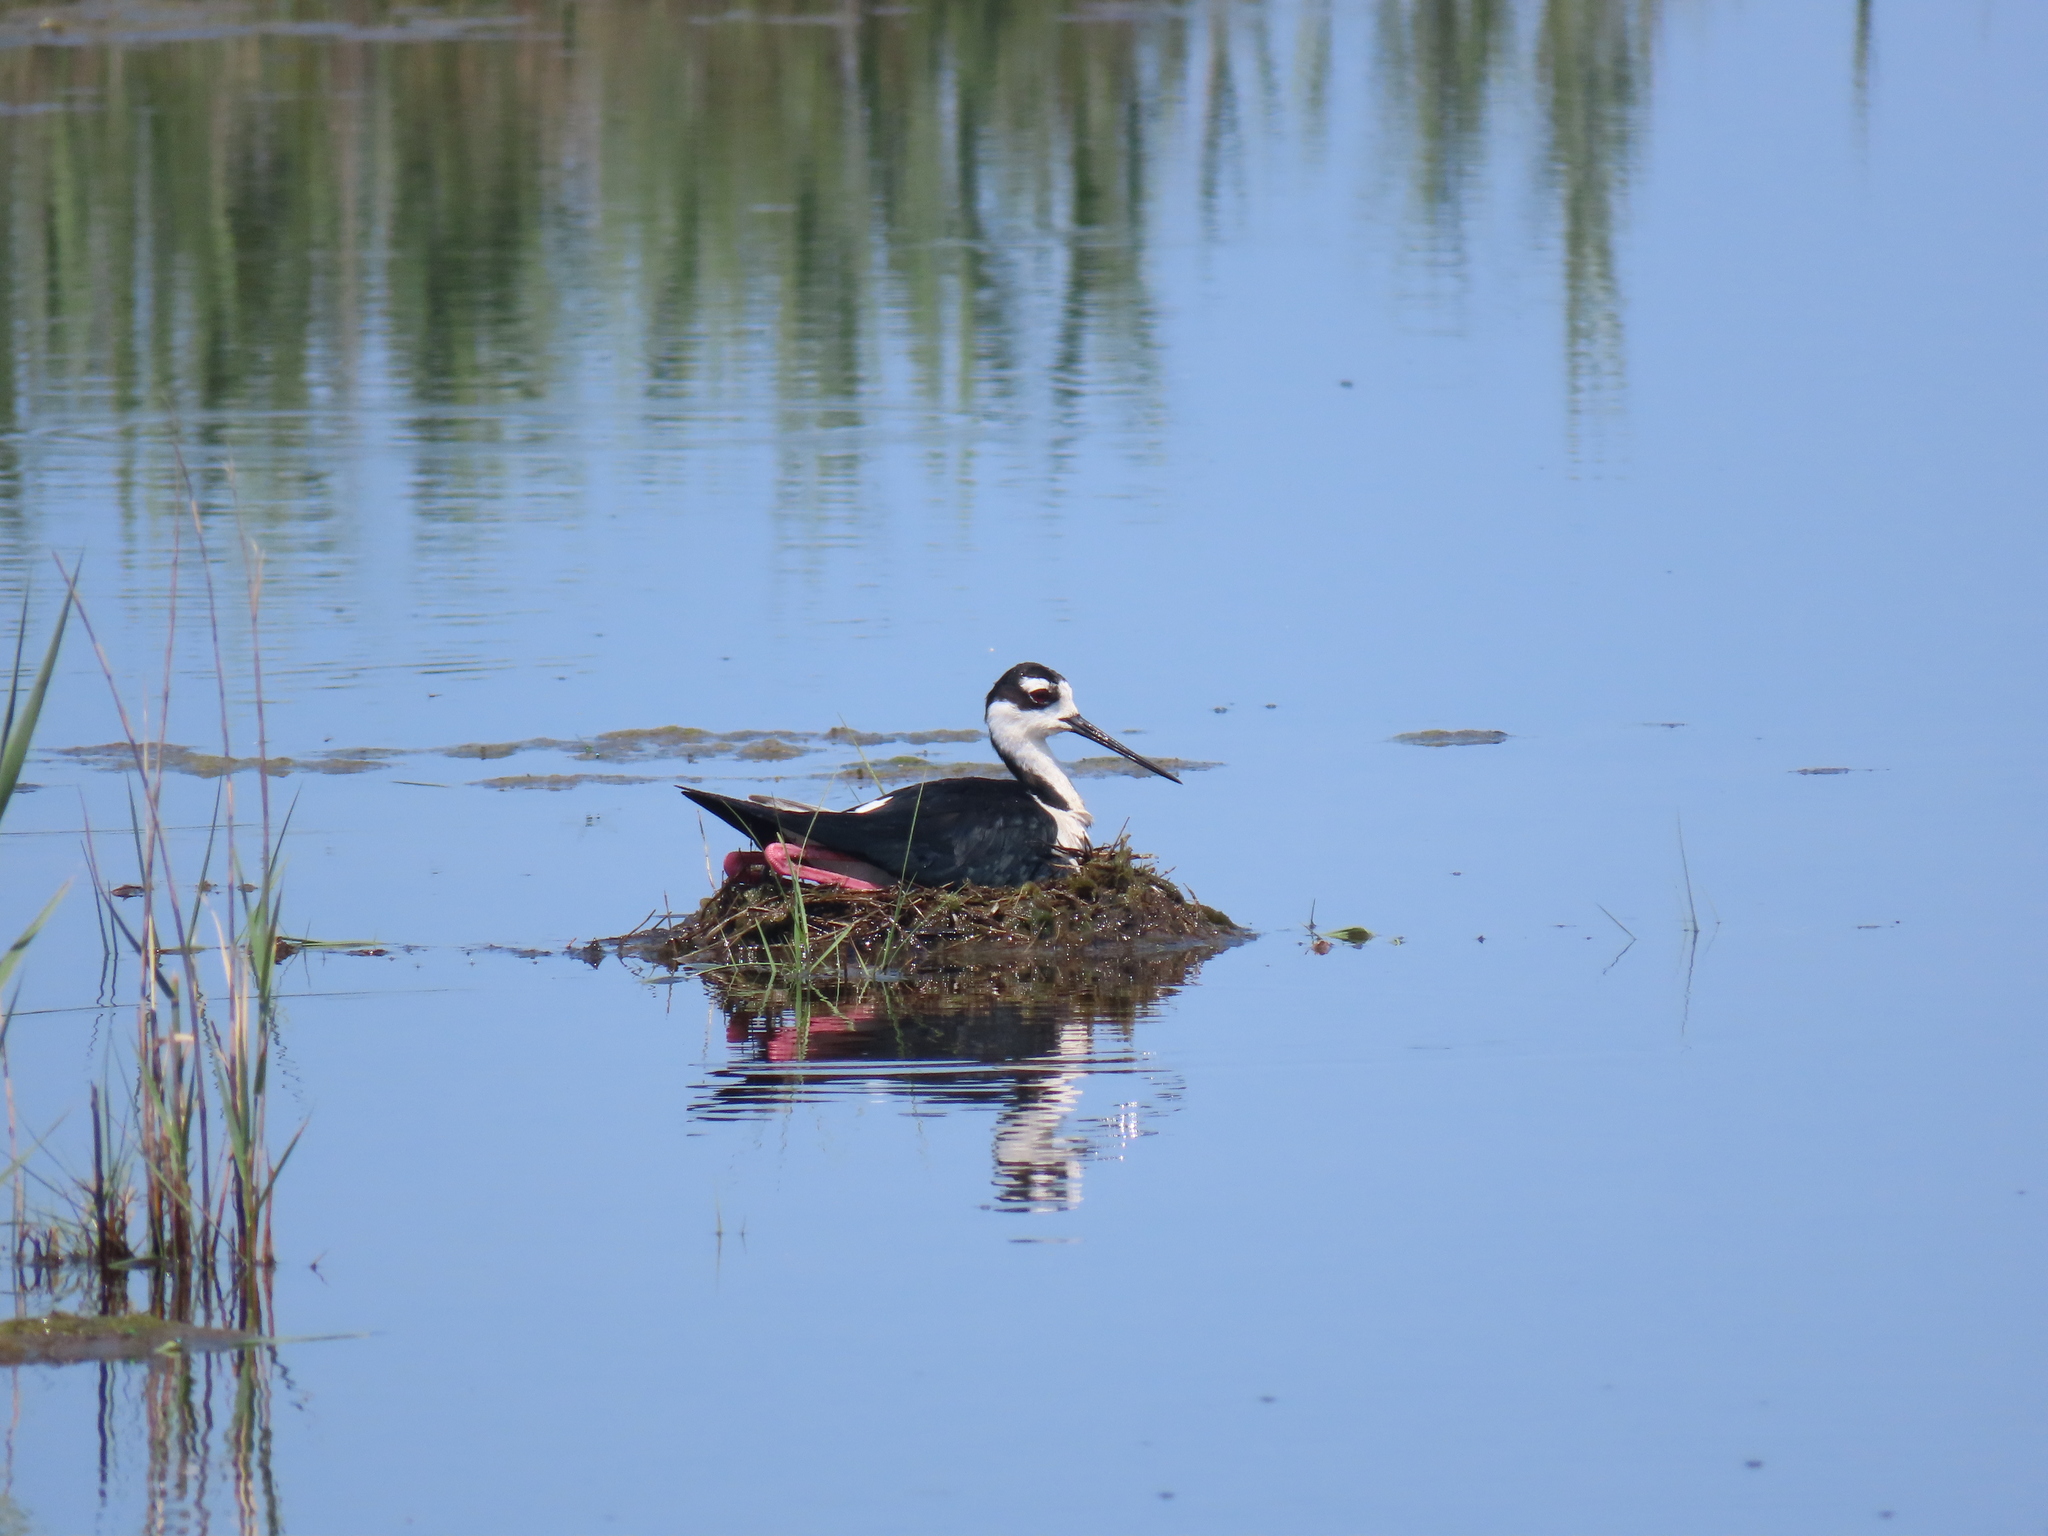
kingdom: Animalia
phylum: Chordata
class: Aves
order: Charadriiformes
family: Recurvirostridae
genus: Himantopus
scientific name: Himantopus mexicanus
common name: Black-necked stilt
